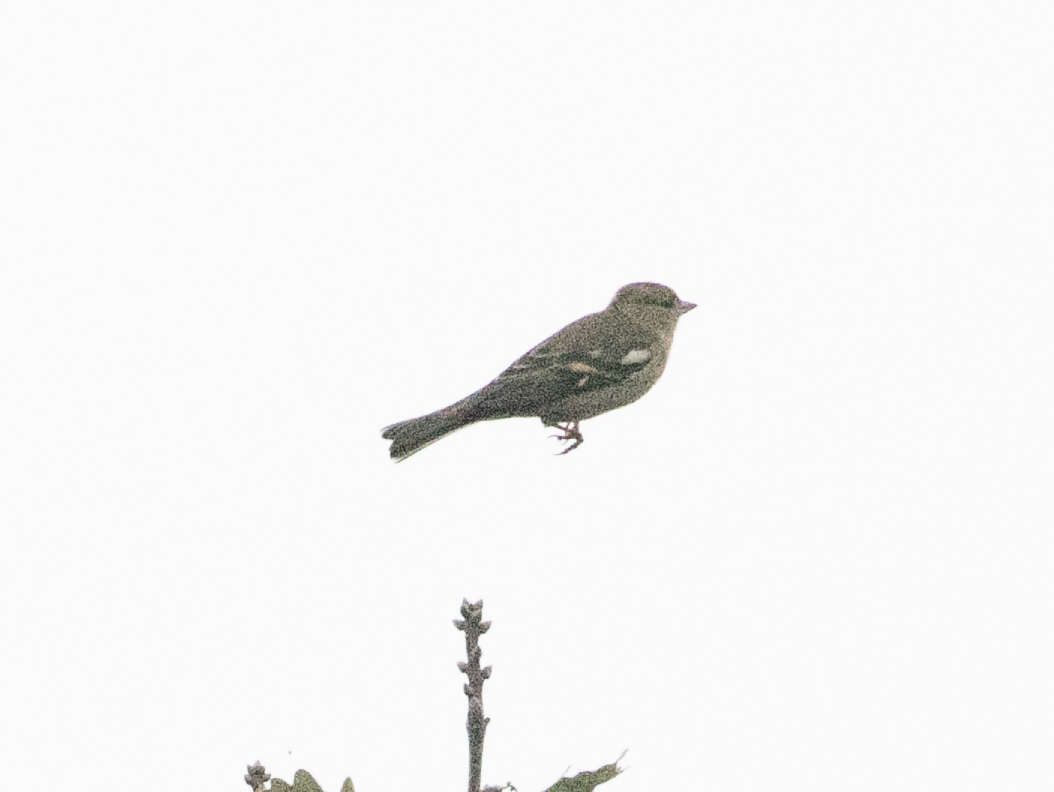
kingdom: Animalia
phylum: Chordata
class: Aves
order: Passeriformes
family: Fringillidae
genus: Fringilla
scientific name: Fringilla coelebs
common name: Common chaffinch
